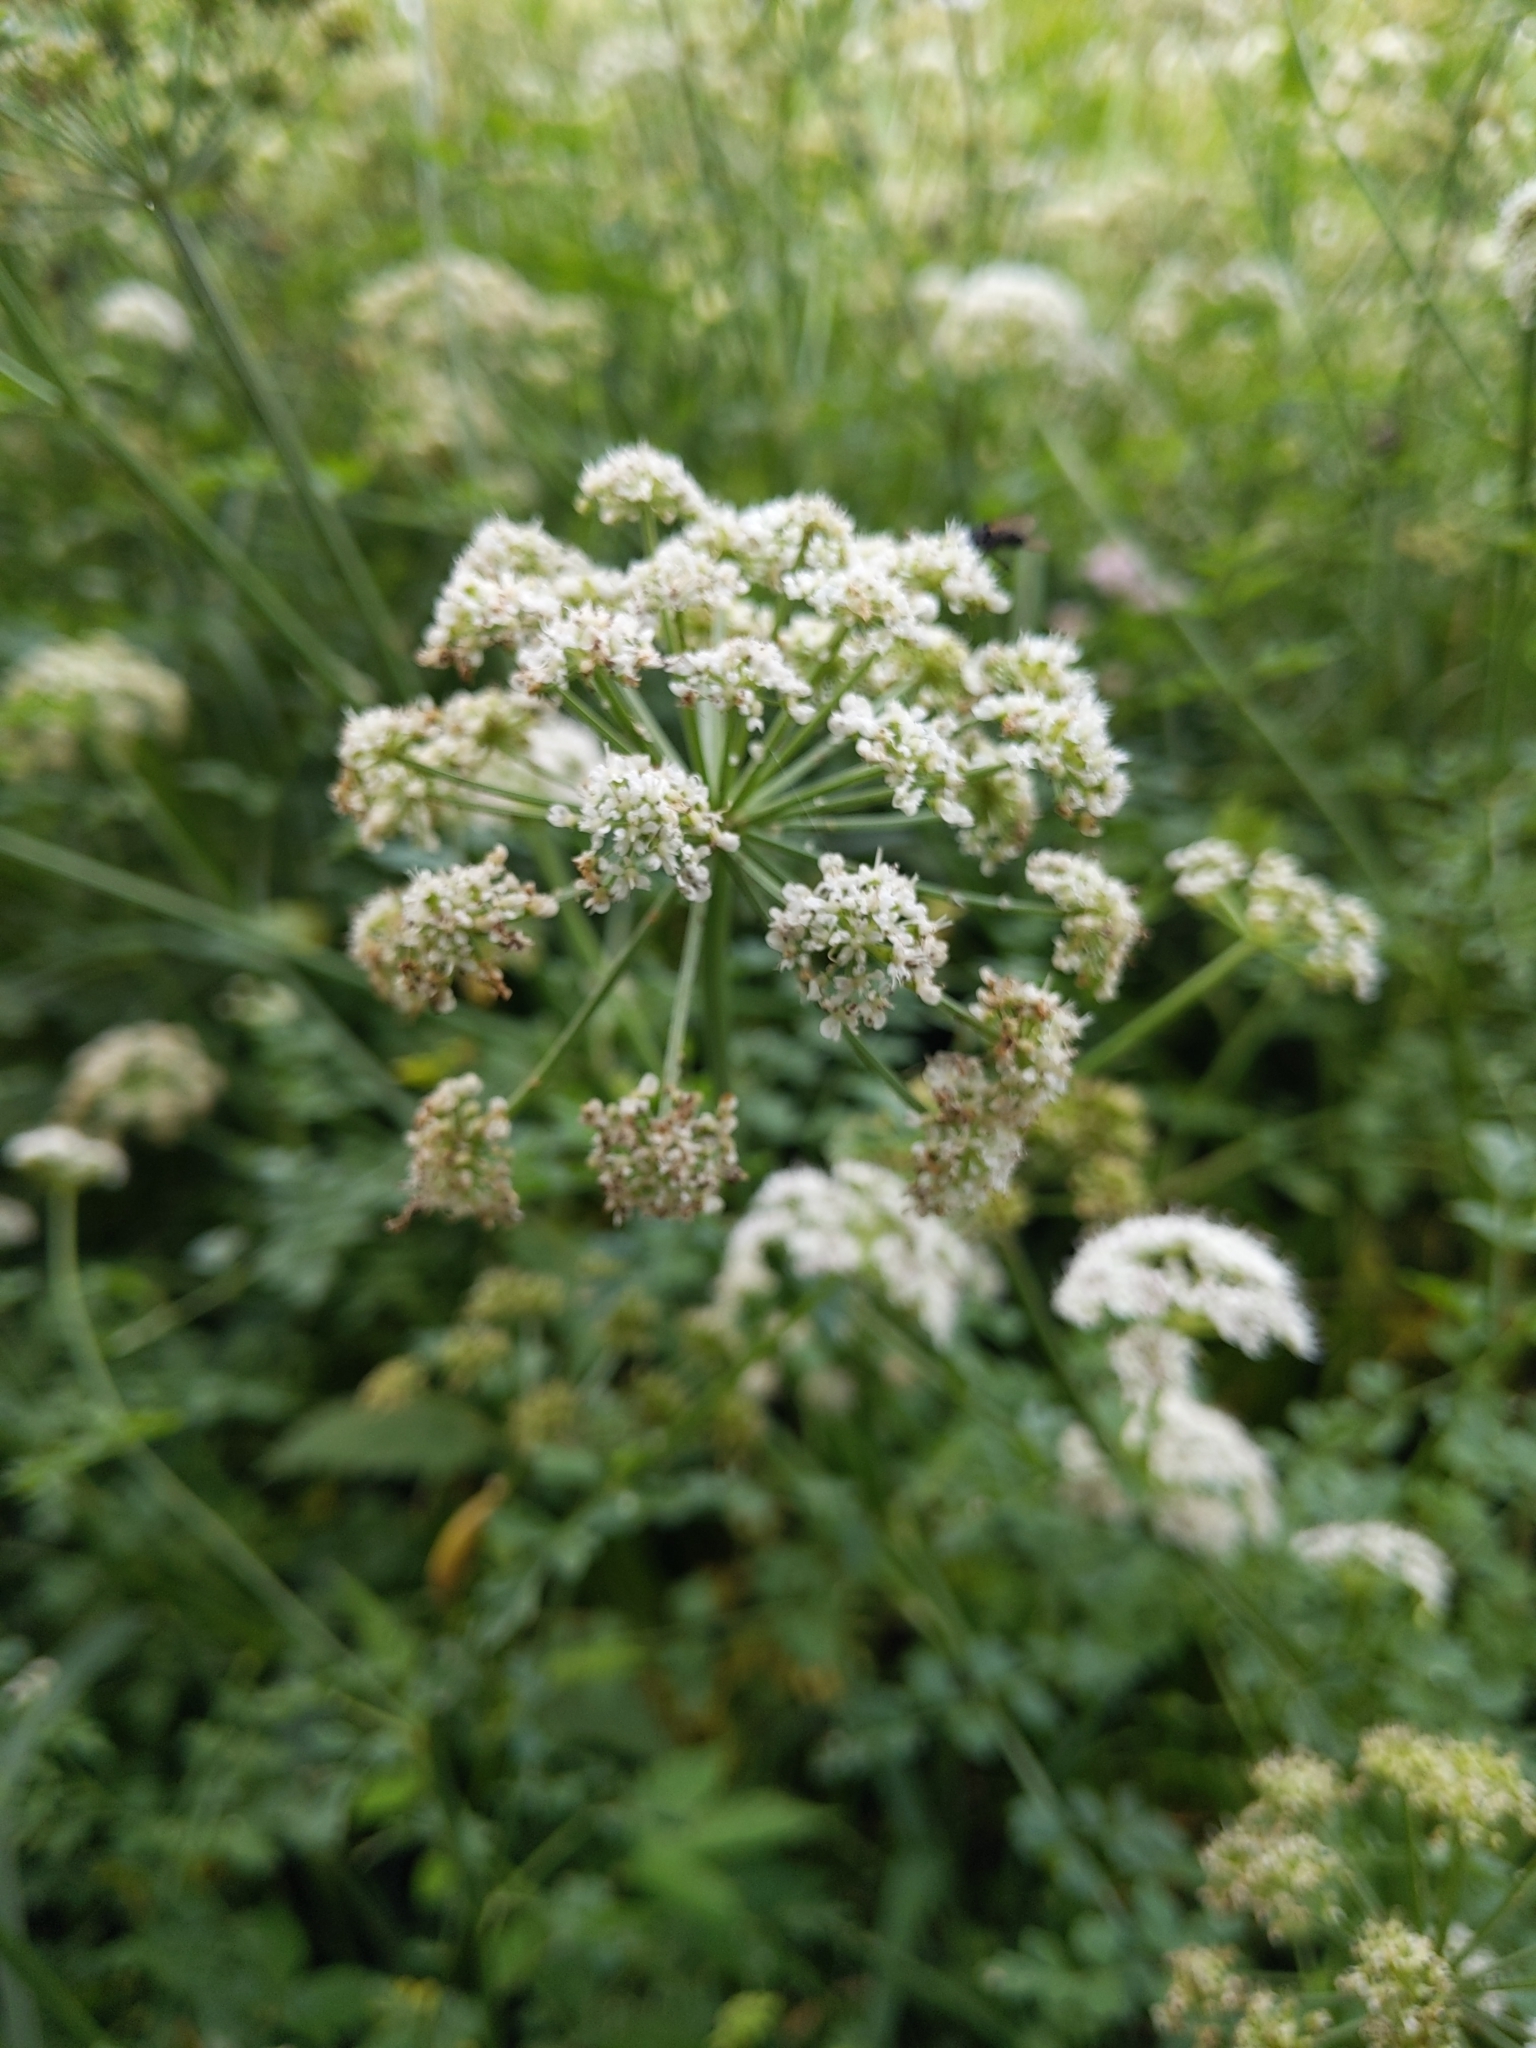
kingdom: Plantae
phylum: Tracheophyta
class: Magnoliopsida
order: Apiales
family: Apiaceae
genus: Oenanthe
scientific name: Oenanthe crocata
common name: Hemlock water-dropwort
